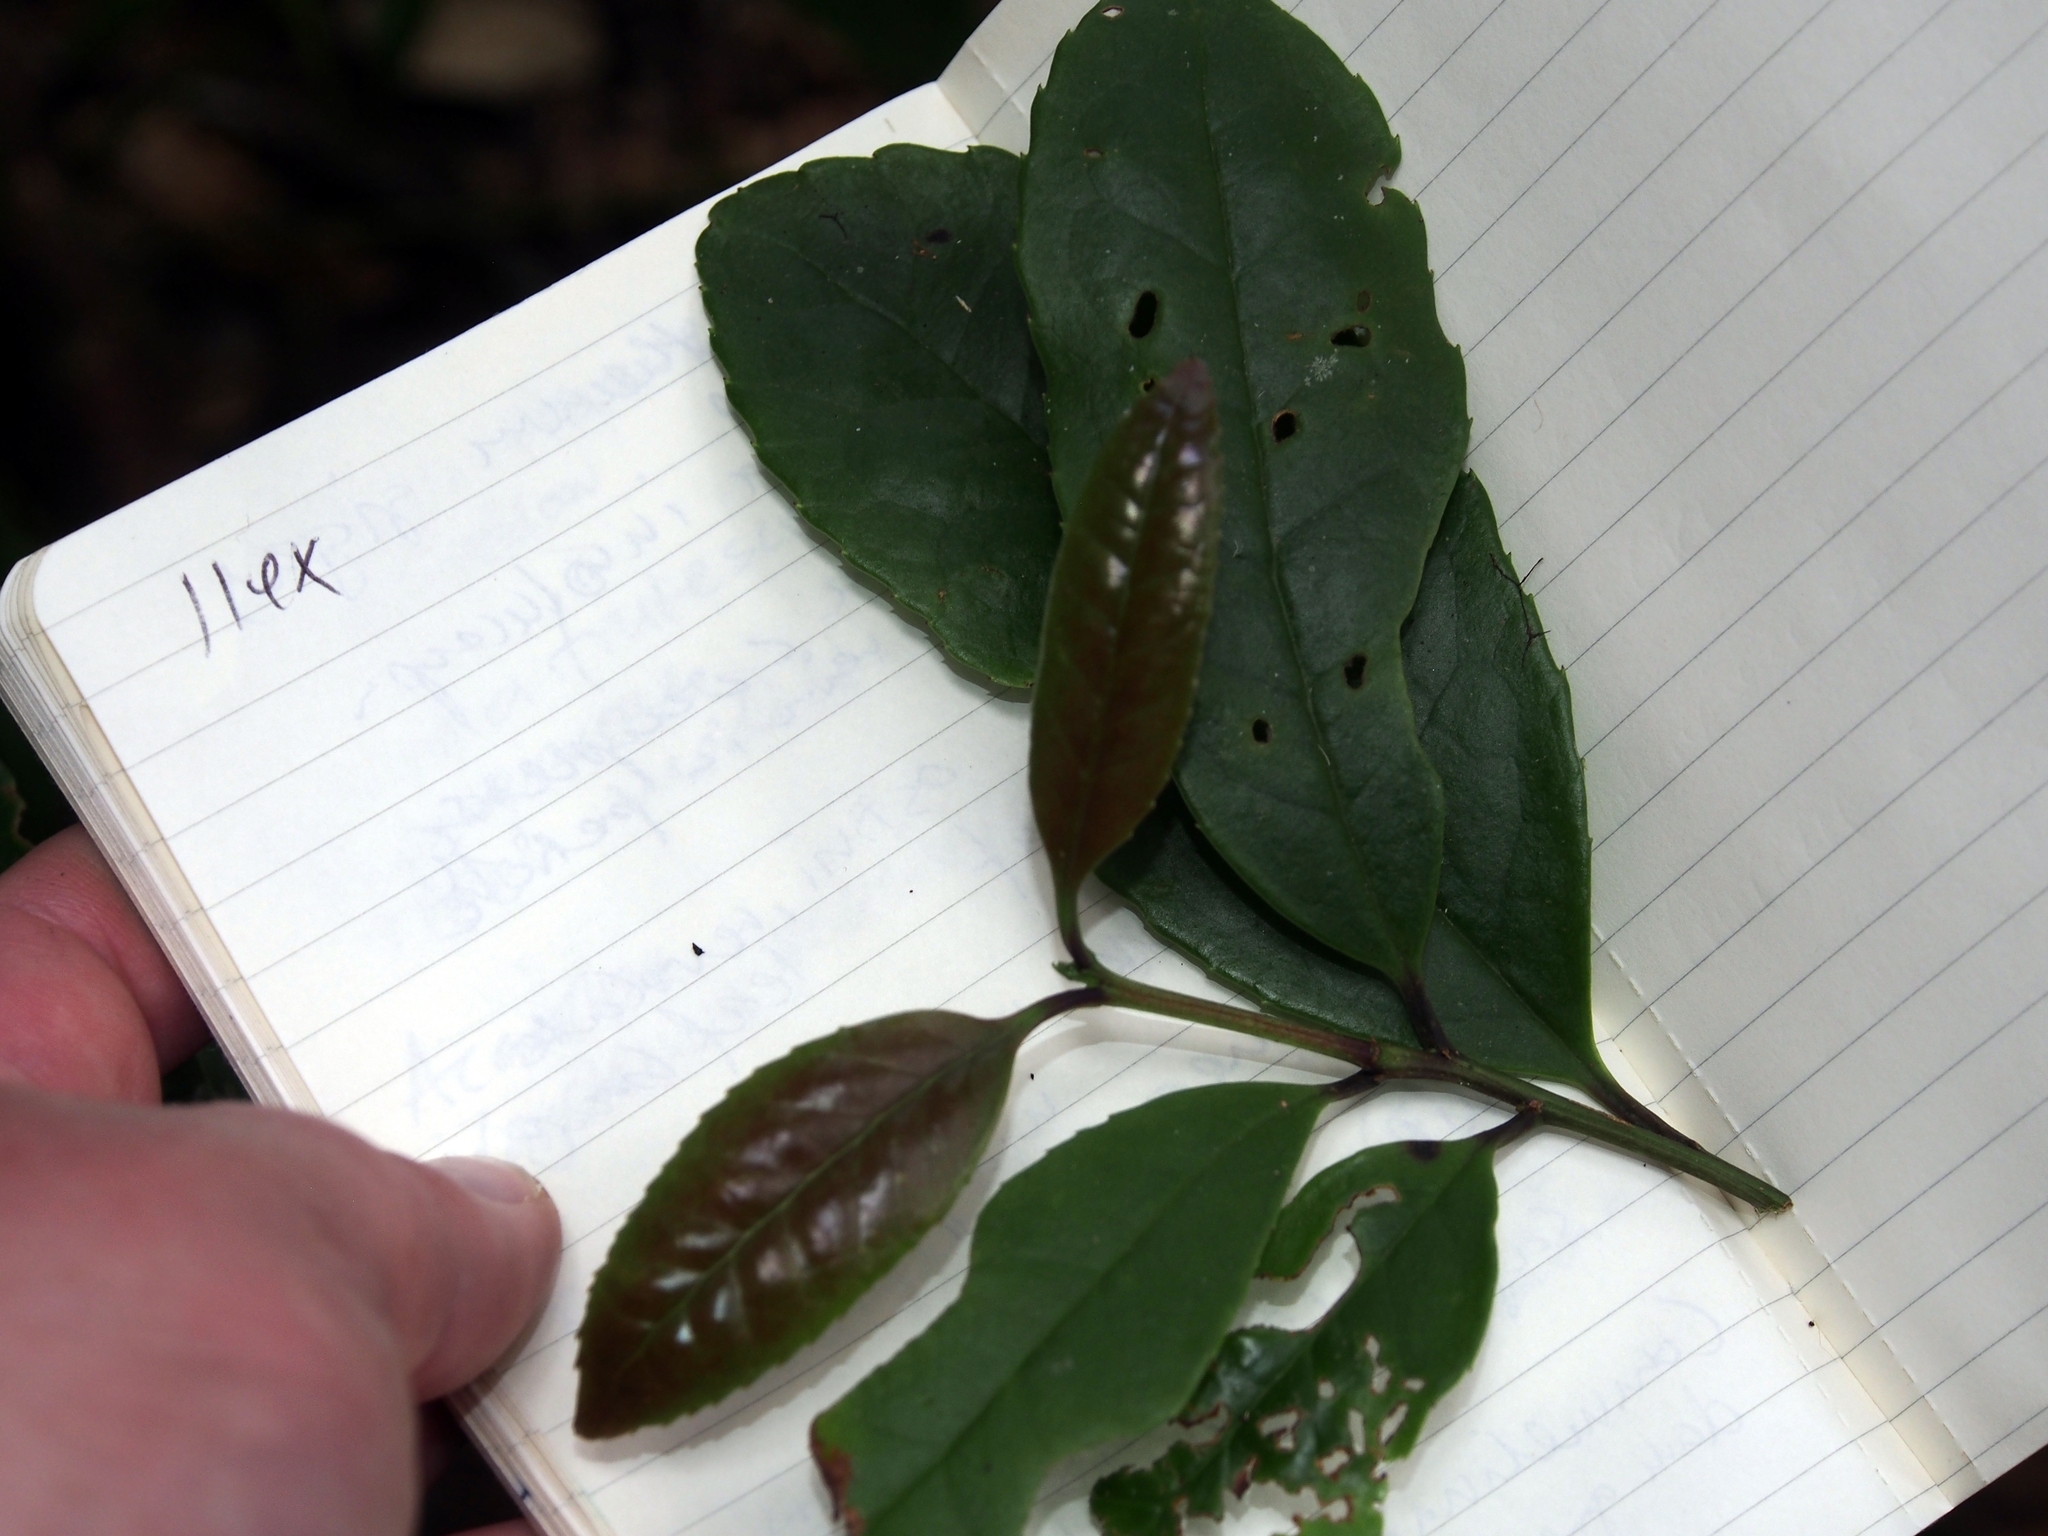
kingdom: Plantae
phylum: Tracheophyta
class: Magnoliopsida
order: Aquifoliales
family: Aquifoliaceae
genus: Ilex
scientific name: Ilex lamprophylla
